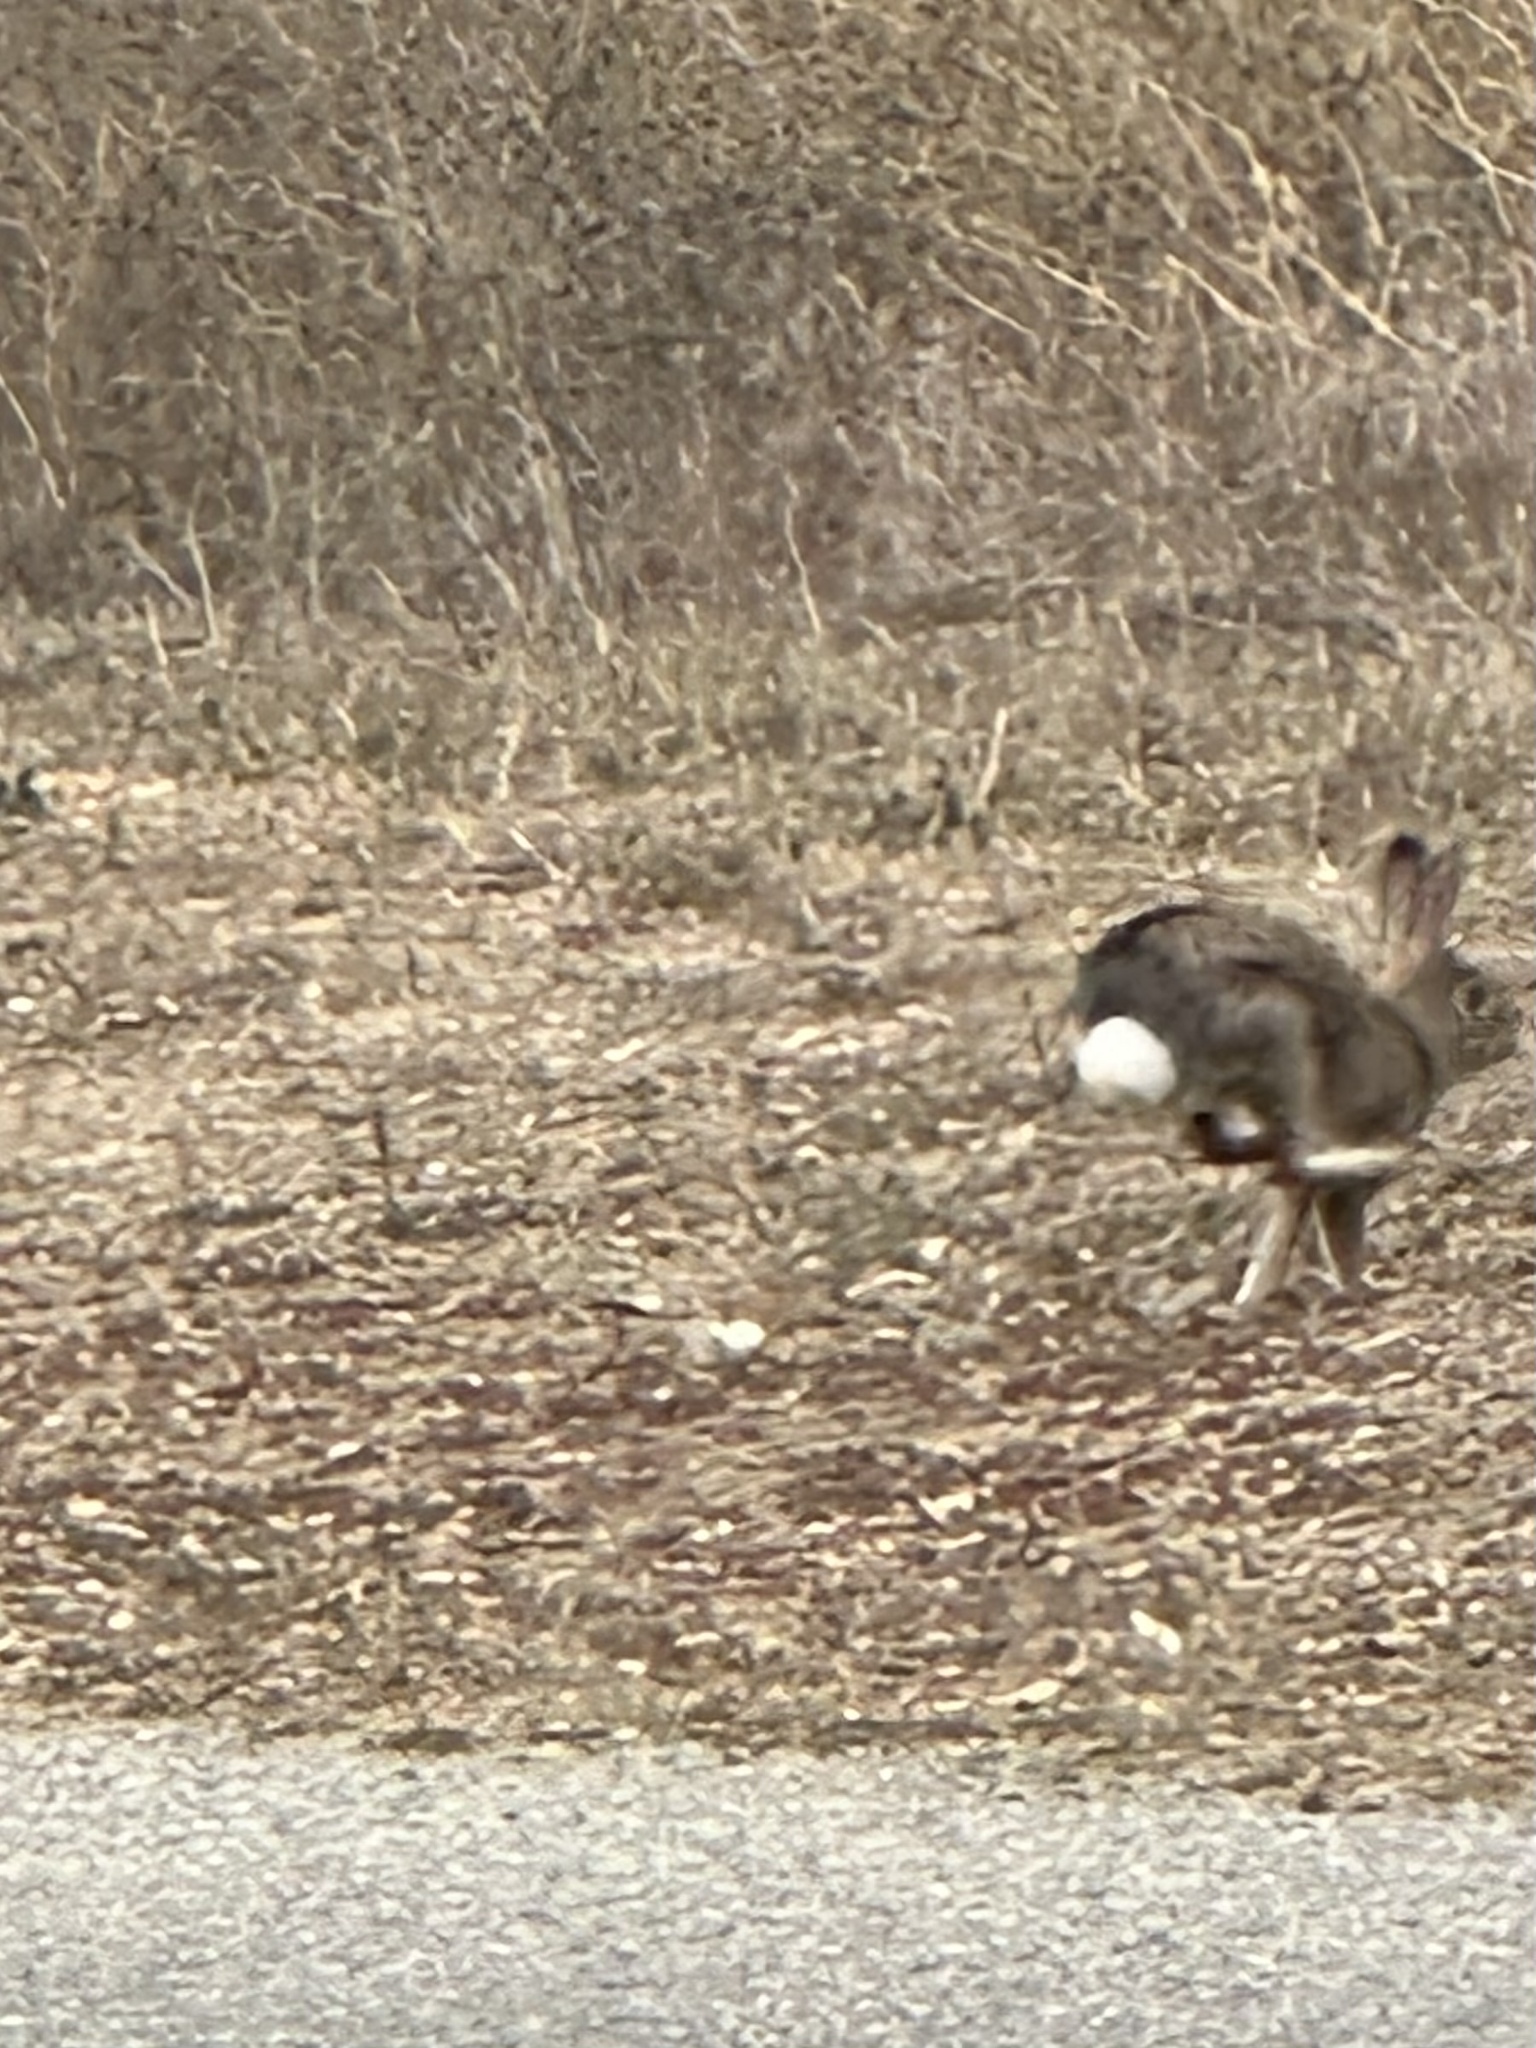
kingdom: Animalia
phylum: Chordata
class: Mammalia
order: Lagomorpha
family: Leporidae
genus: Sylvilagus
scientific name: Sylvilagus audubonii
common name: Desert cottontail
